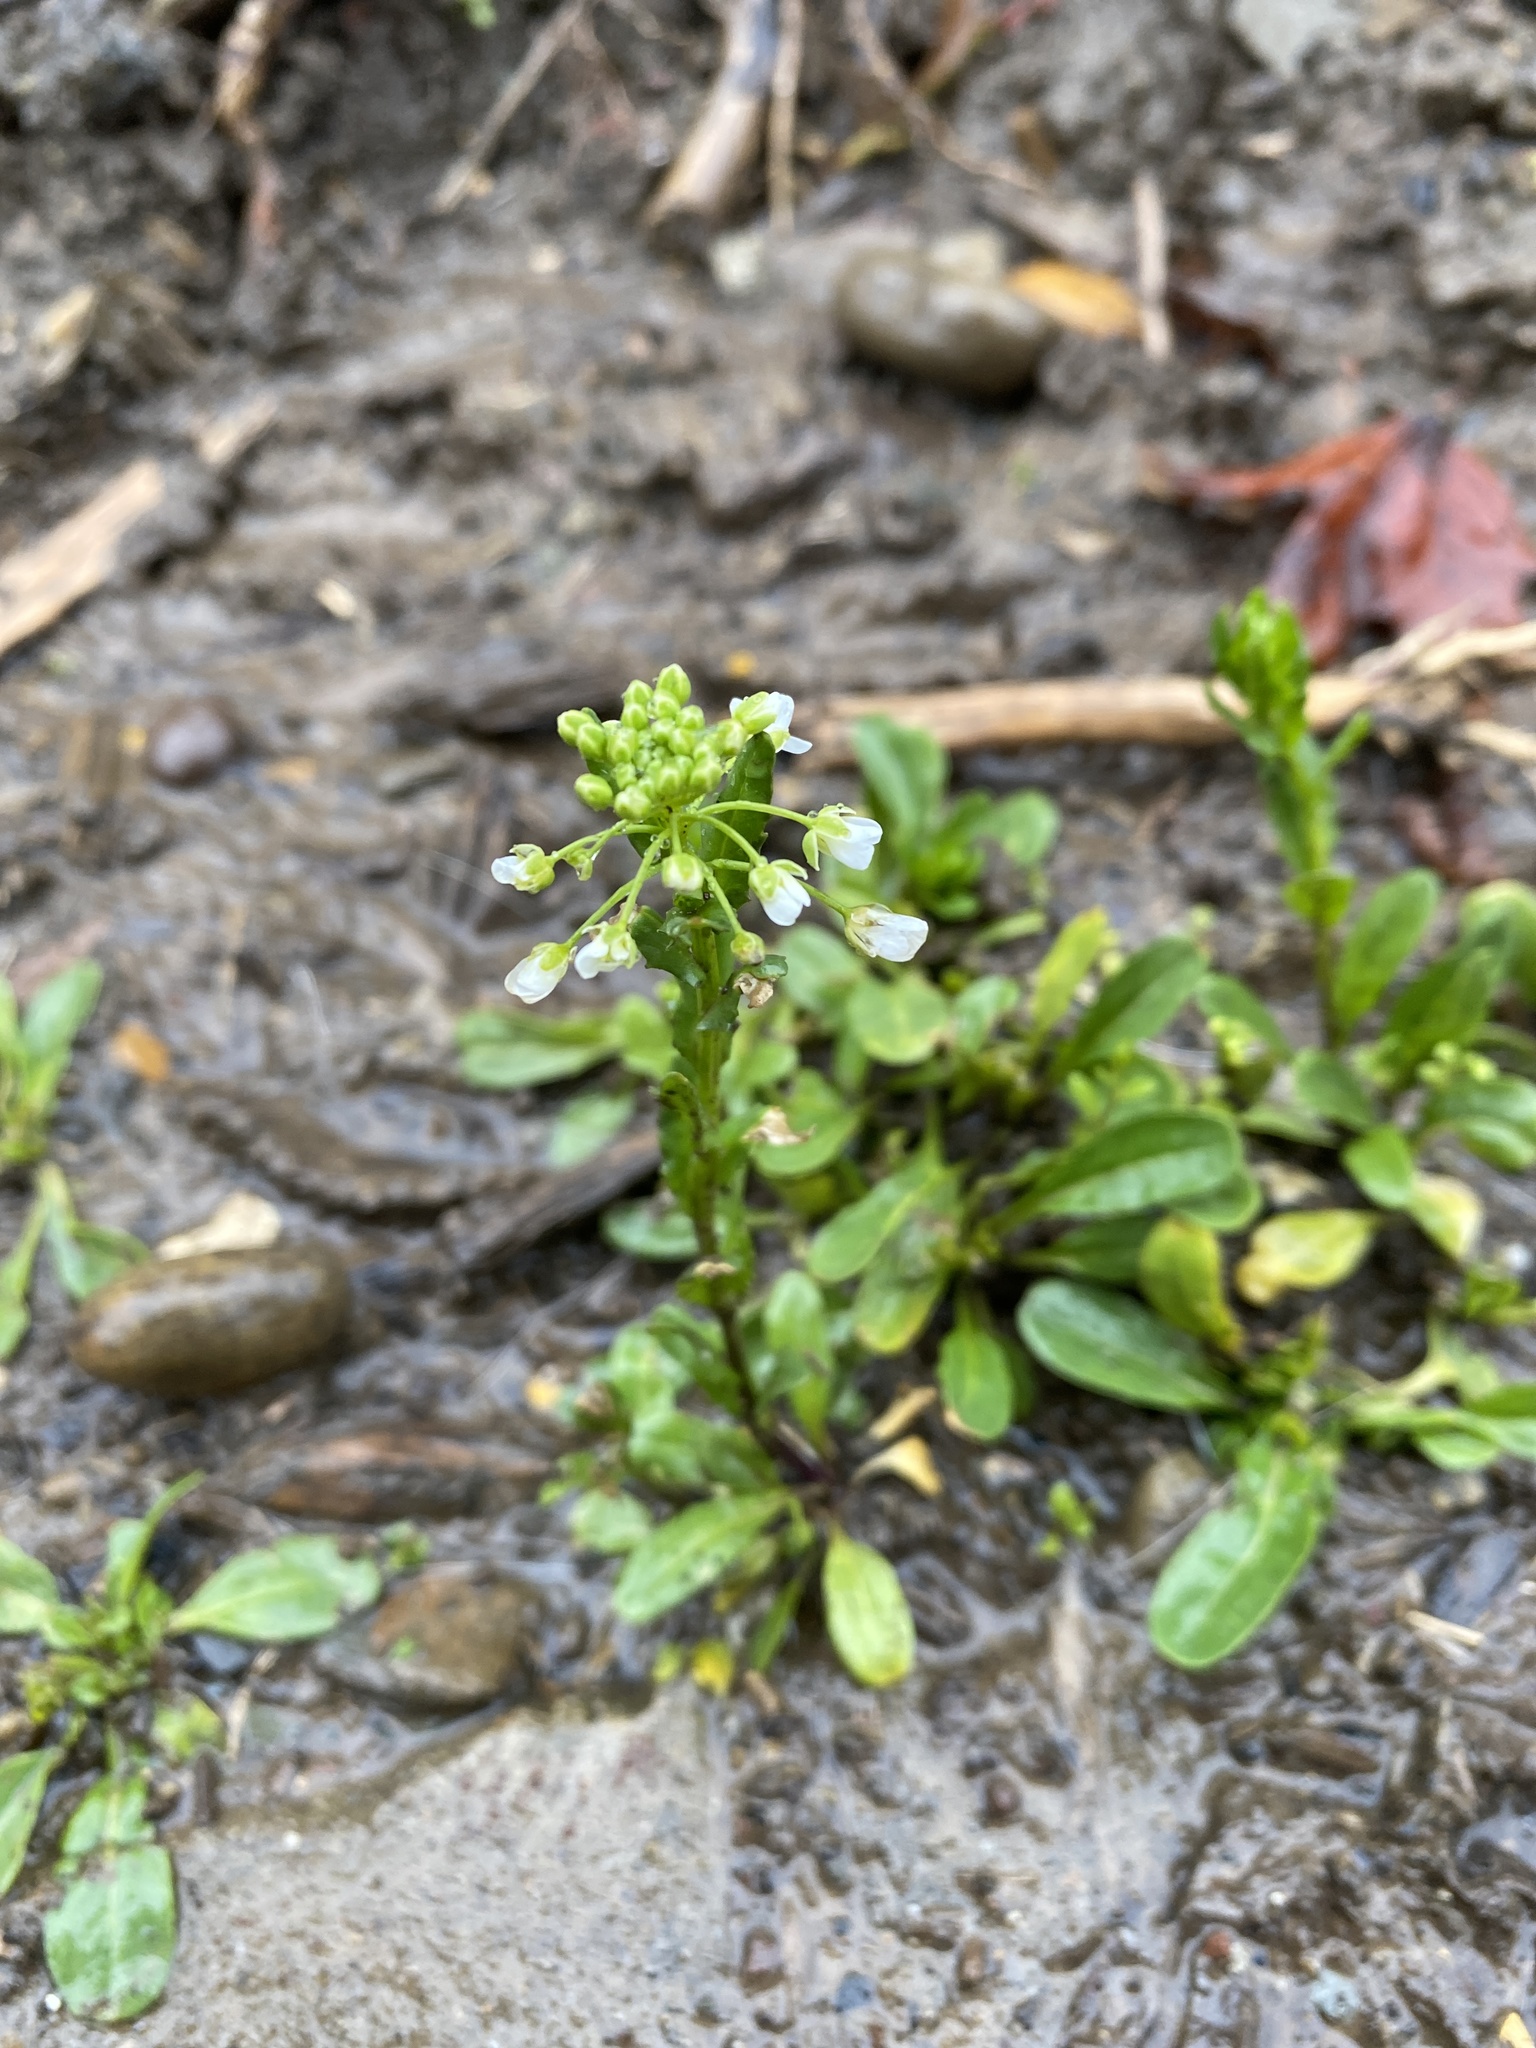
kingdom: Plantae
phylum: Tracheophyta
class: Magnoliopsida
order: Brassicales
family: Brassicaceae
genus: Mummenhoffia
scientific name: Mummenhoffia alliacea
